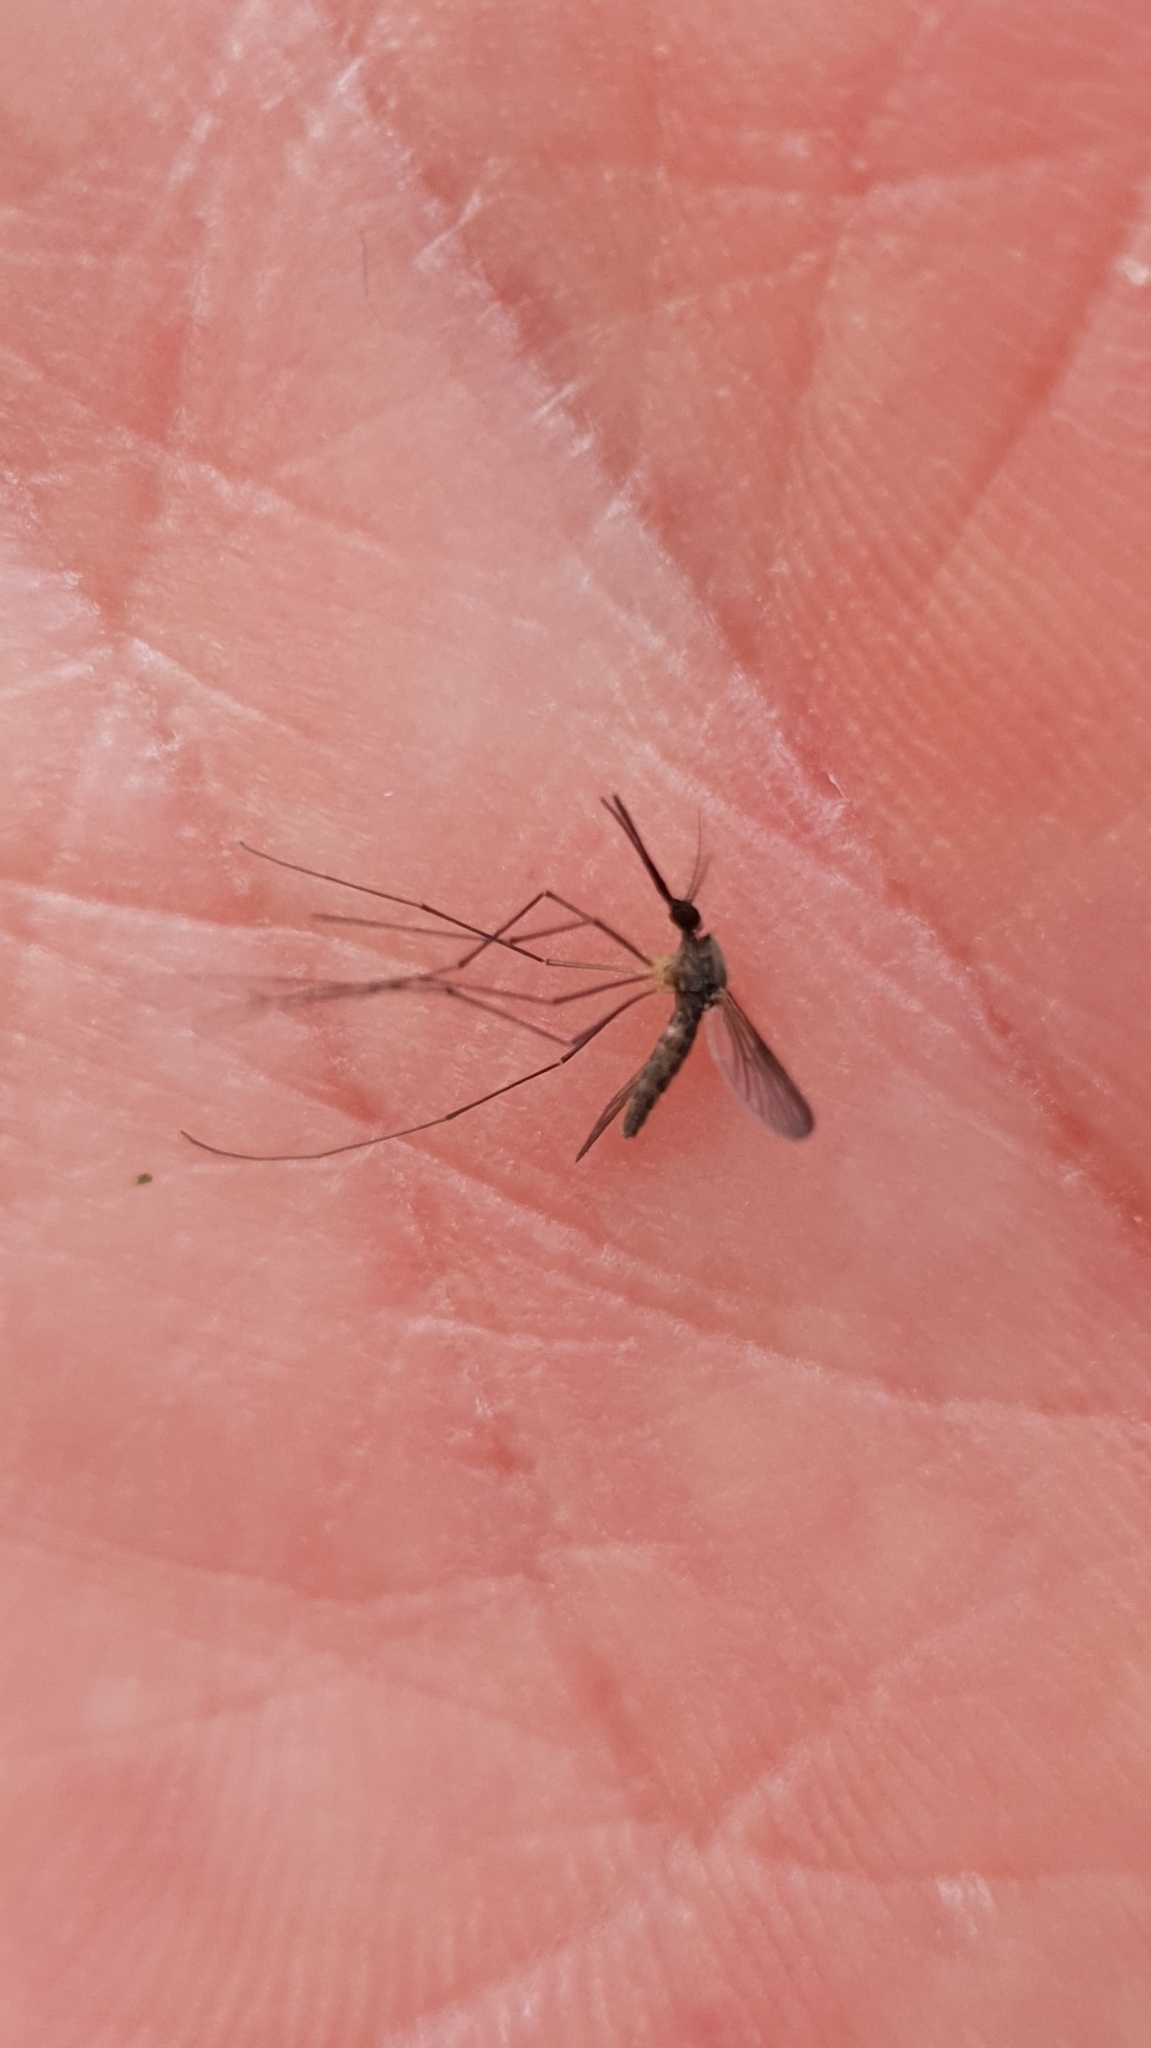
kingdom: Animalia
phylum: Arthropoda
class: Insecta
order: Diptera
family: Culicidae
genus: Anopheles
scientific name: Anopheles plumbeus
